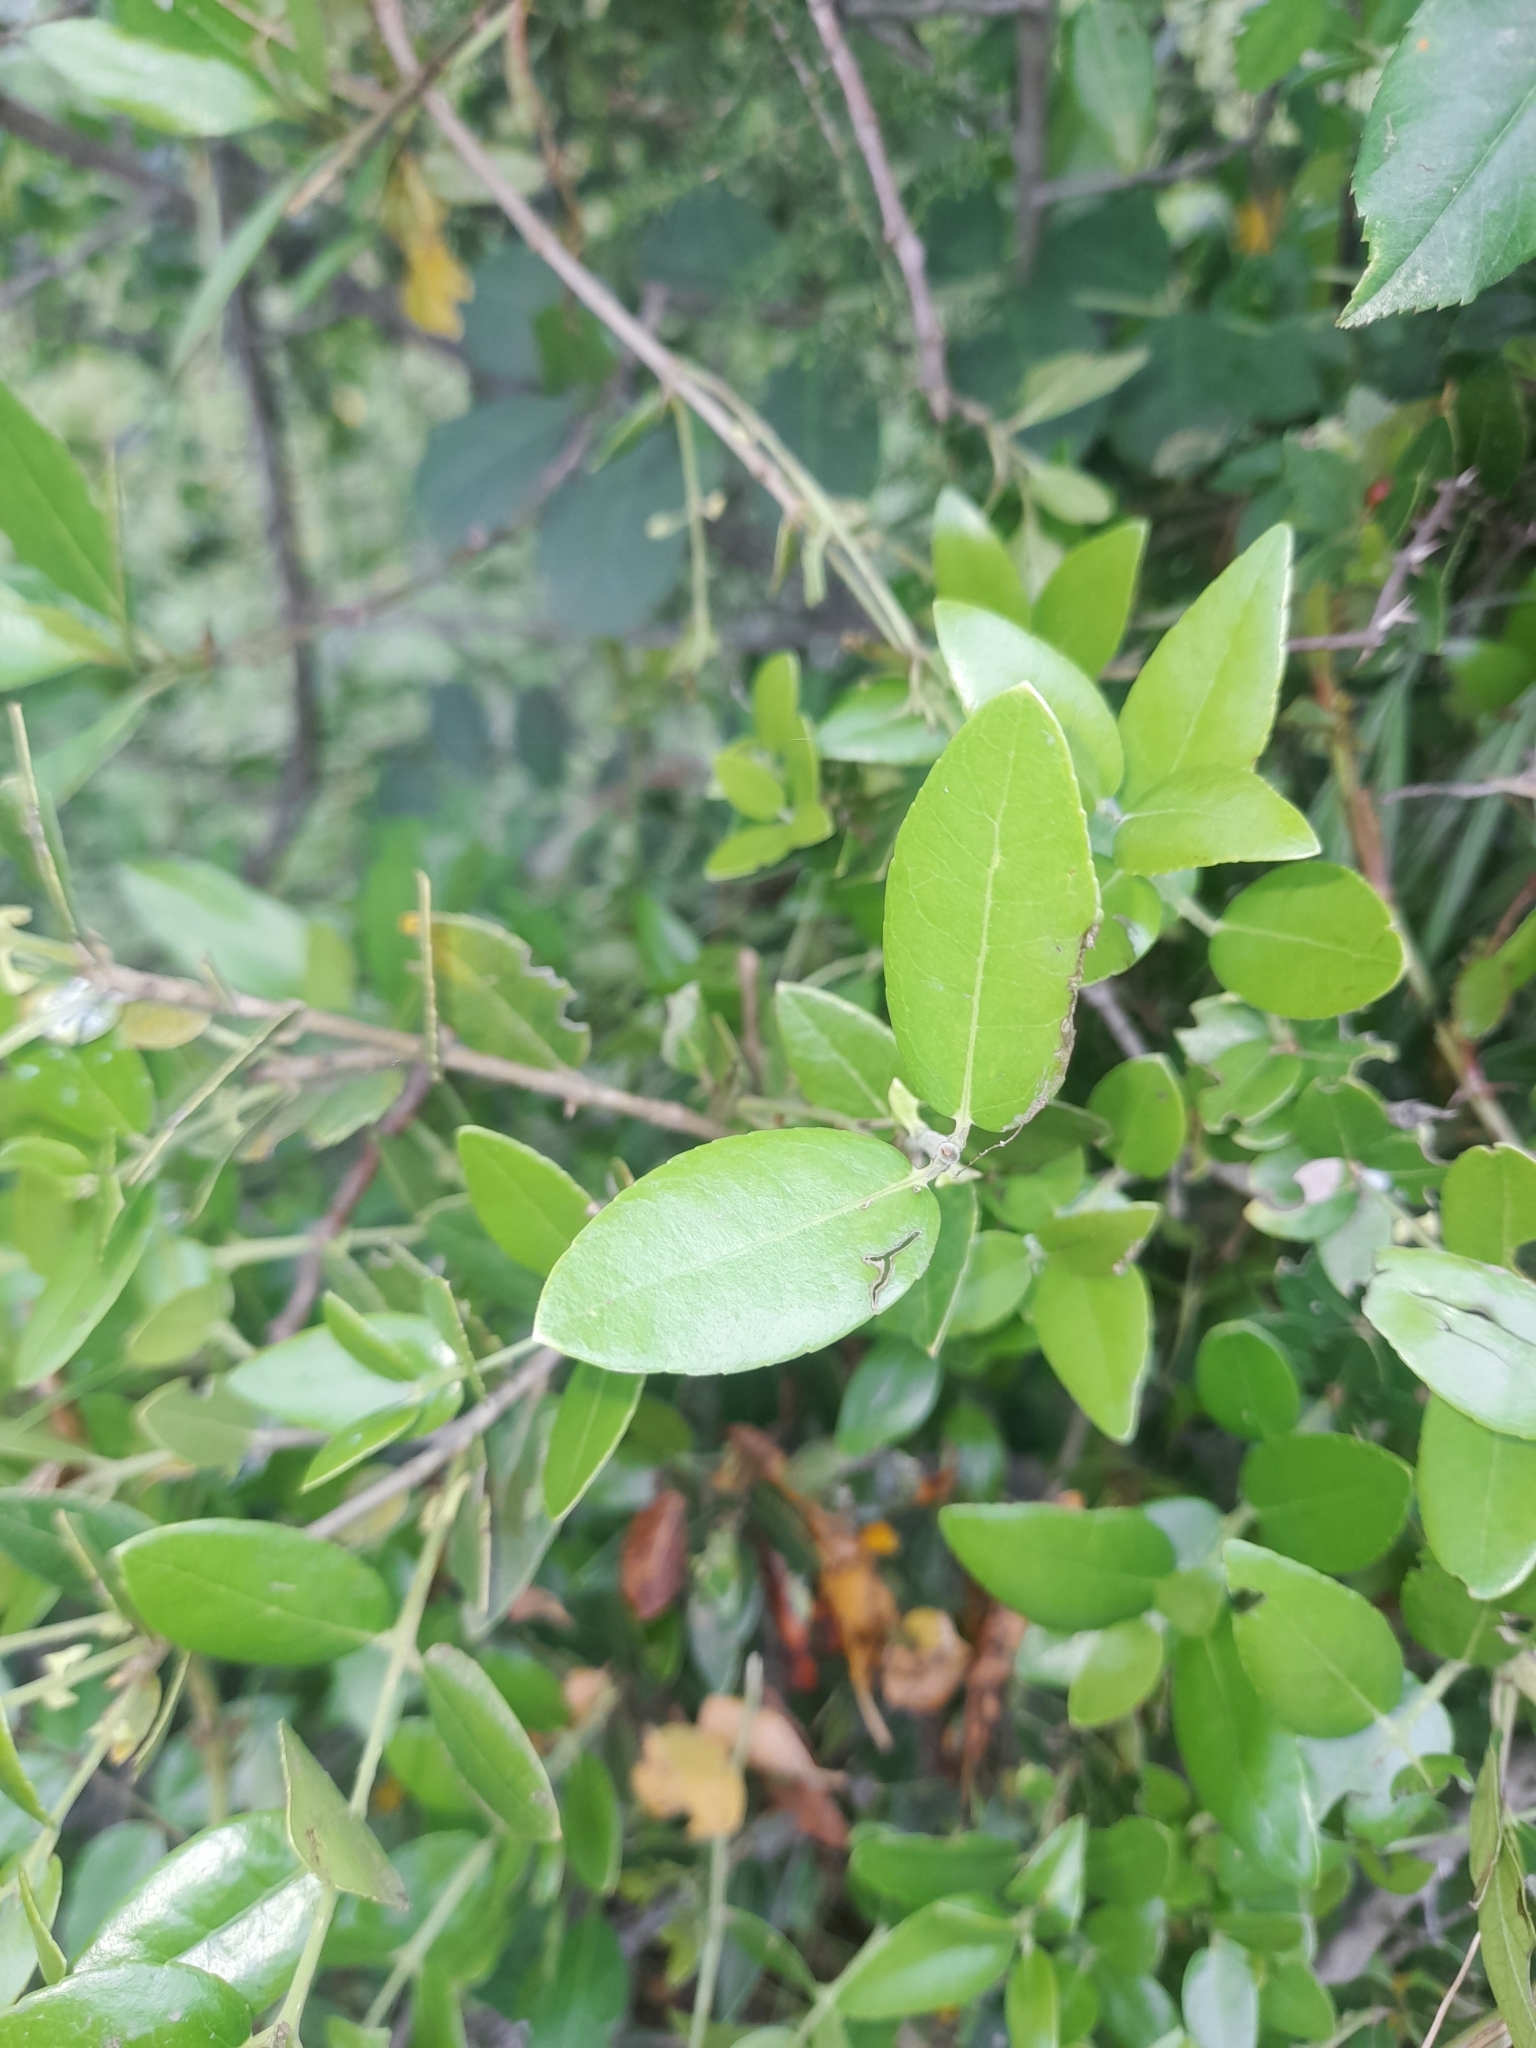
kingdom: Plantae
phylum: Tracheophyta
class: Magnoliopsida
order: Lamiales
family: Oleaceae
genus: Phillyrea
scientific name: Phillyrea latifolia
